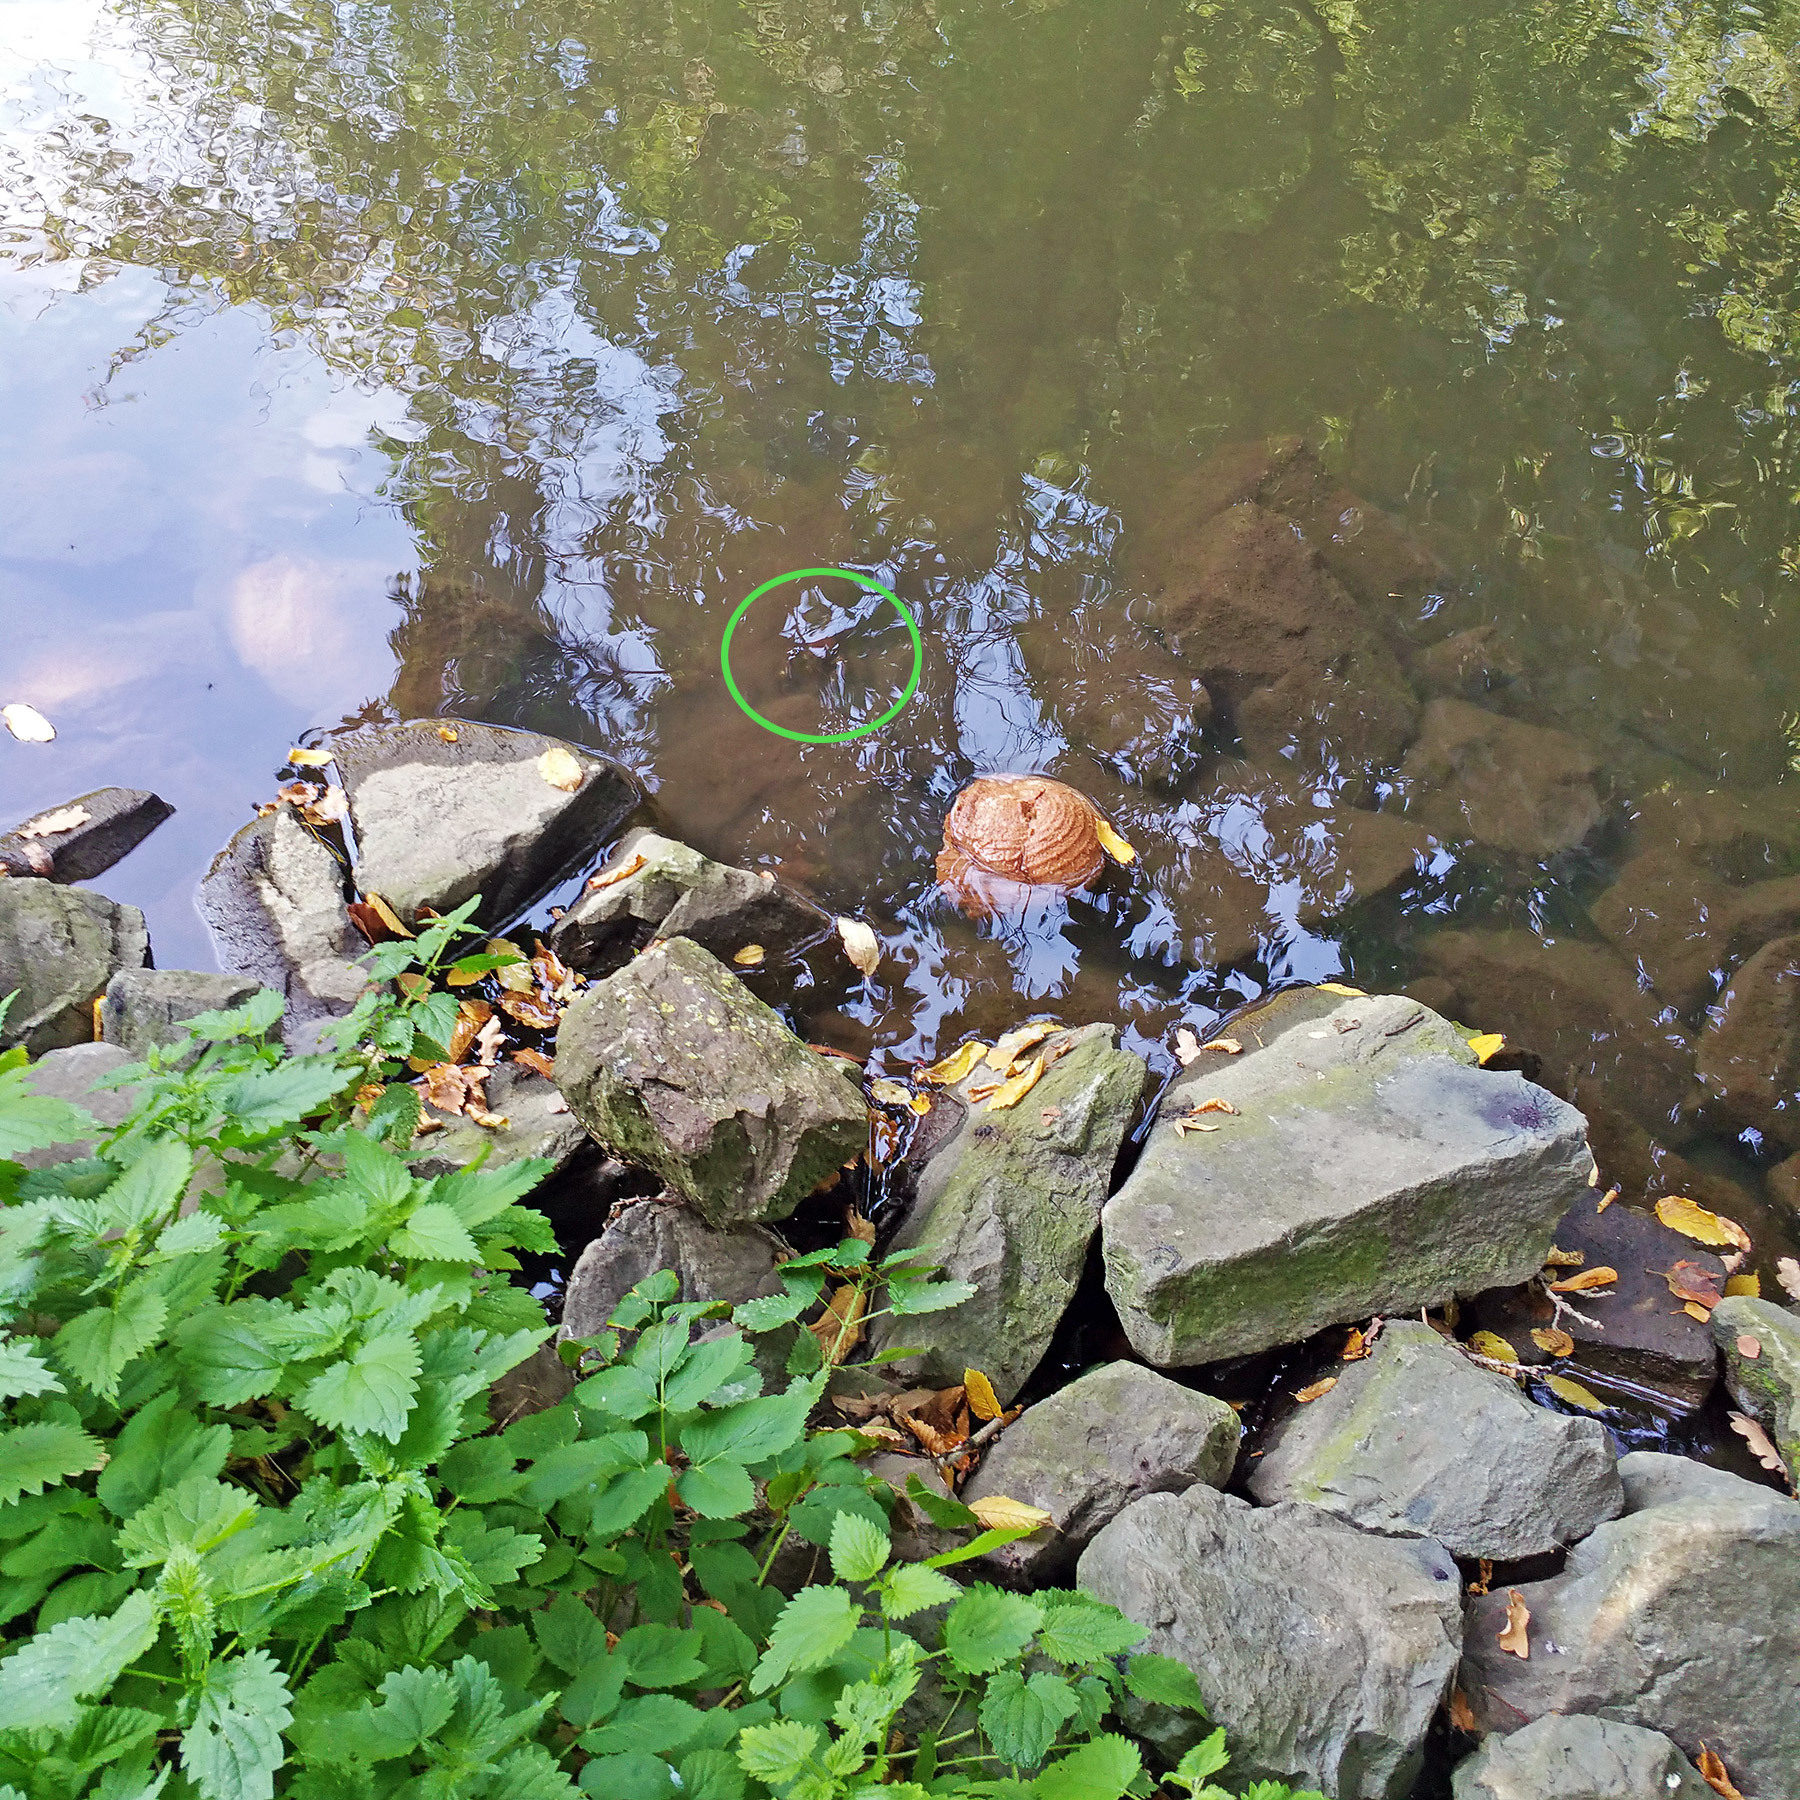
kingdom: Animalia
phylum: Arthropoda
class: Malacostraca
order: Decapoda
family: Astacidae
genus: Pacifastacus
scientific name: Pacifastacus leniusculus
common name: Signal crayfish
